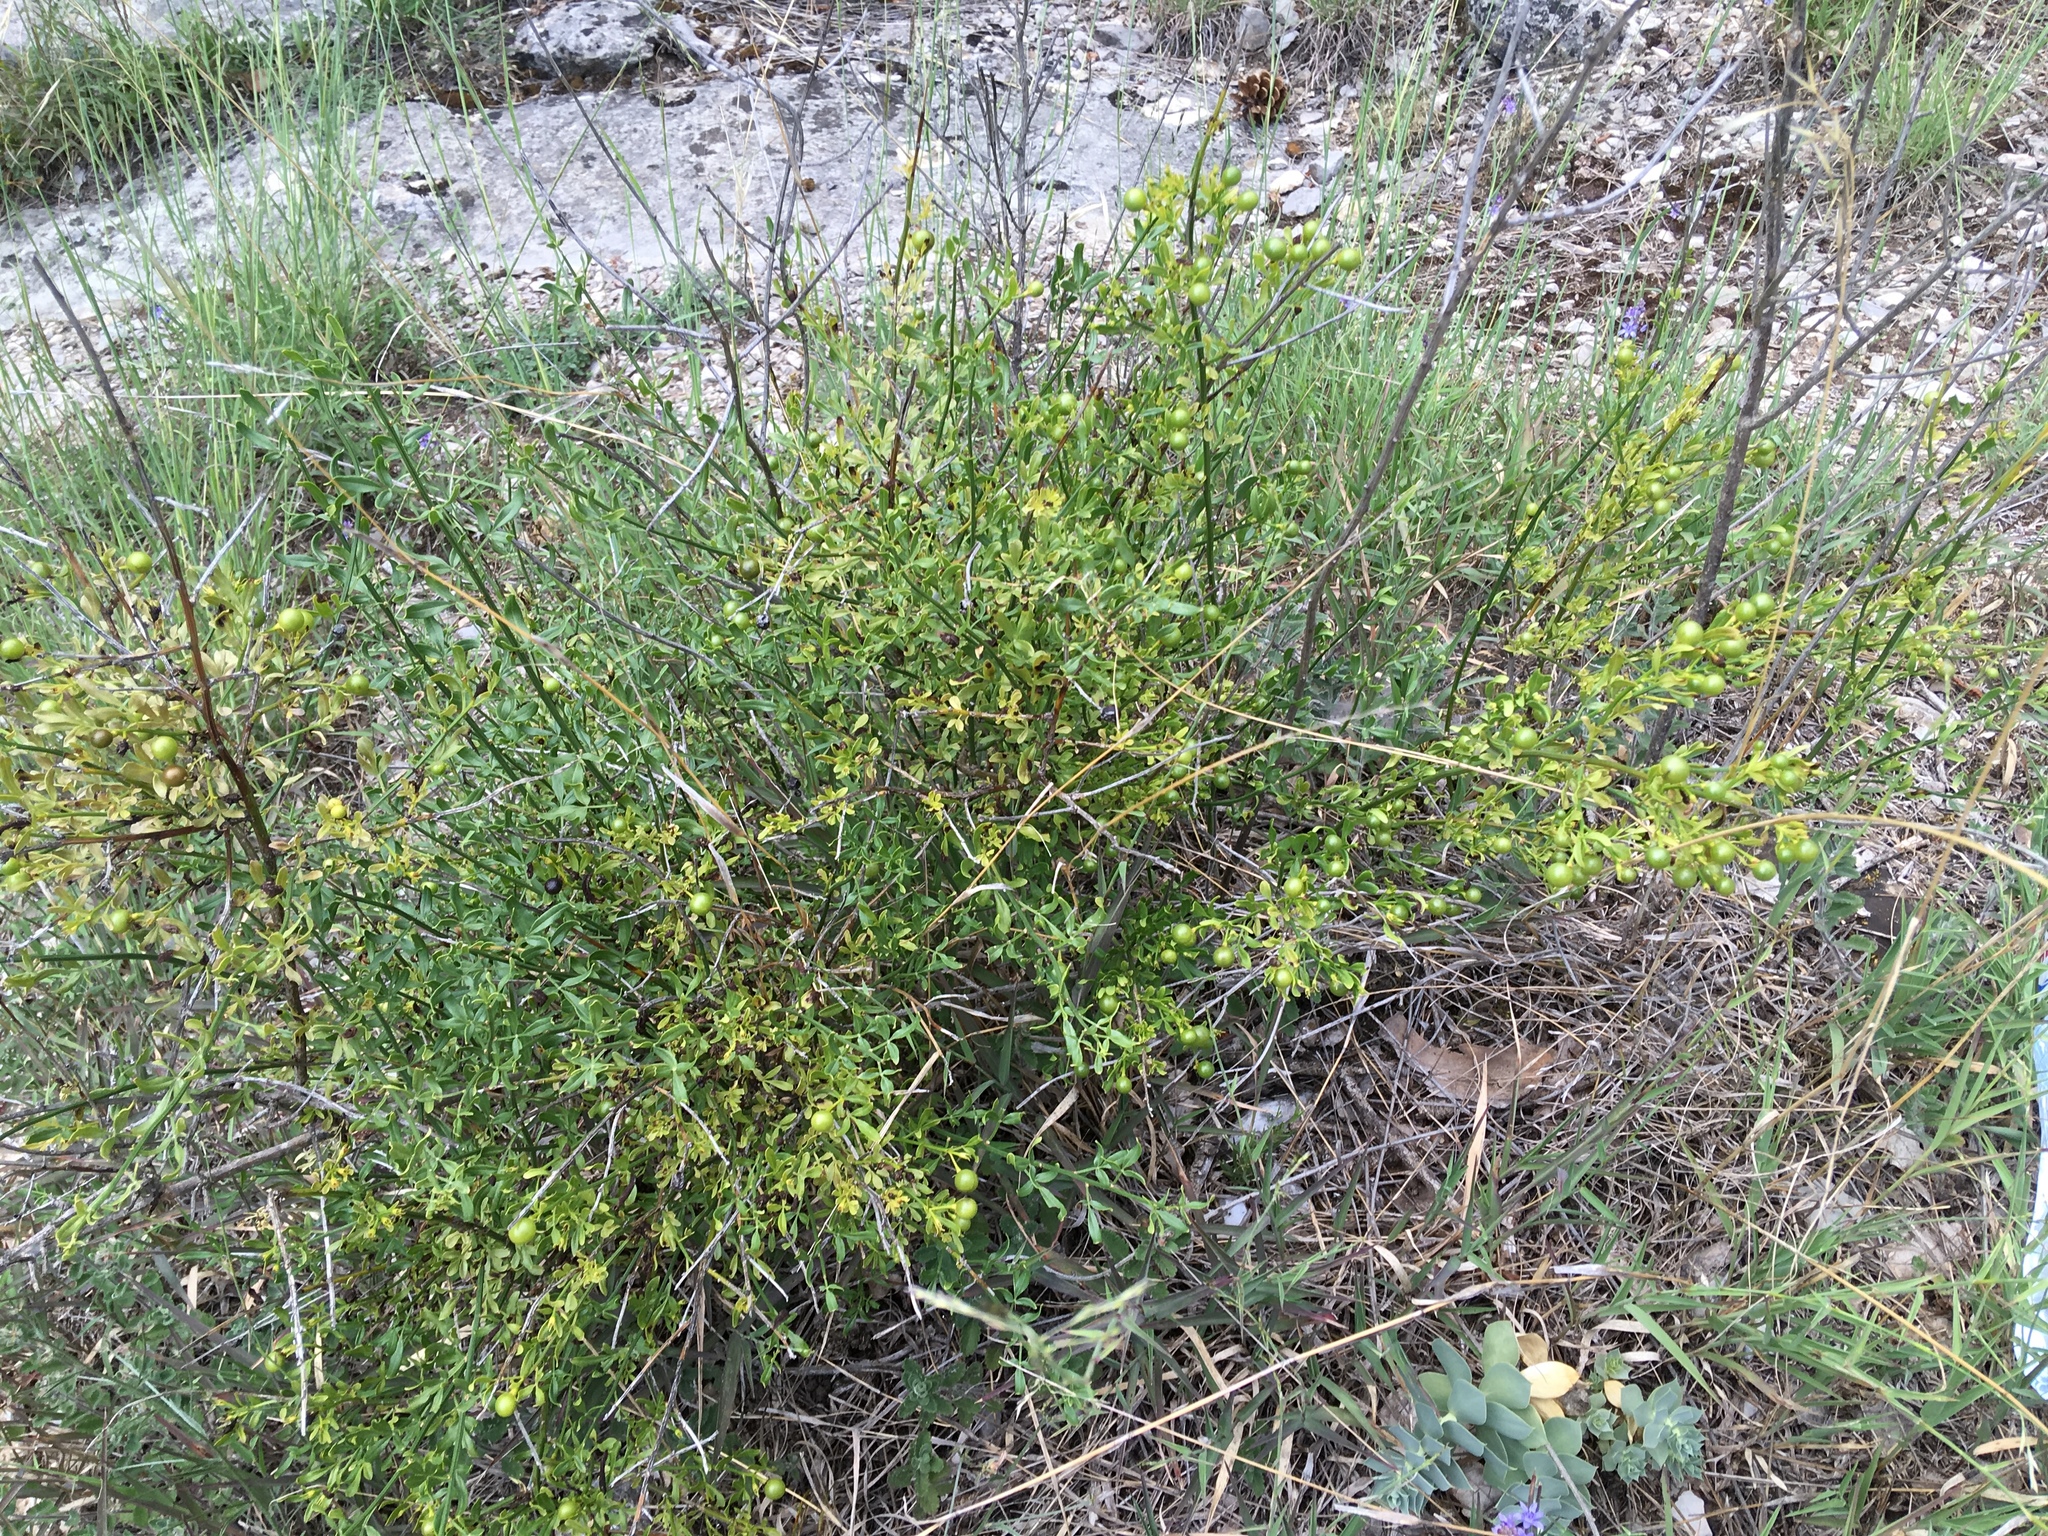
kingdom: Plantae
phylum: Tracheophyta
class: Magnoliopsida
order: Lamiales
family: Oleaceae
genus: Chrysojasminum
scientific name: Chrysojasminum fruticans
